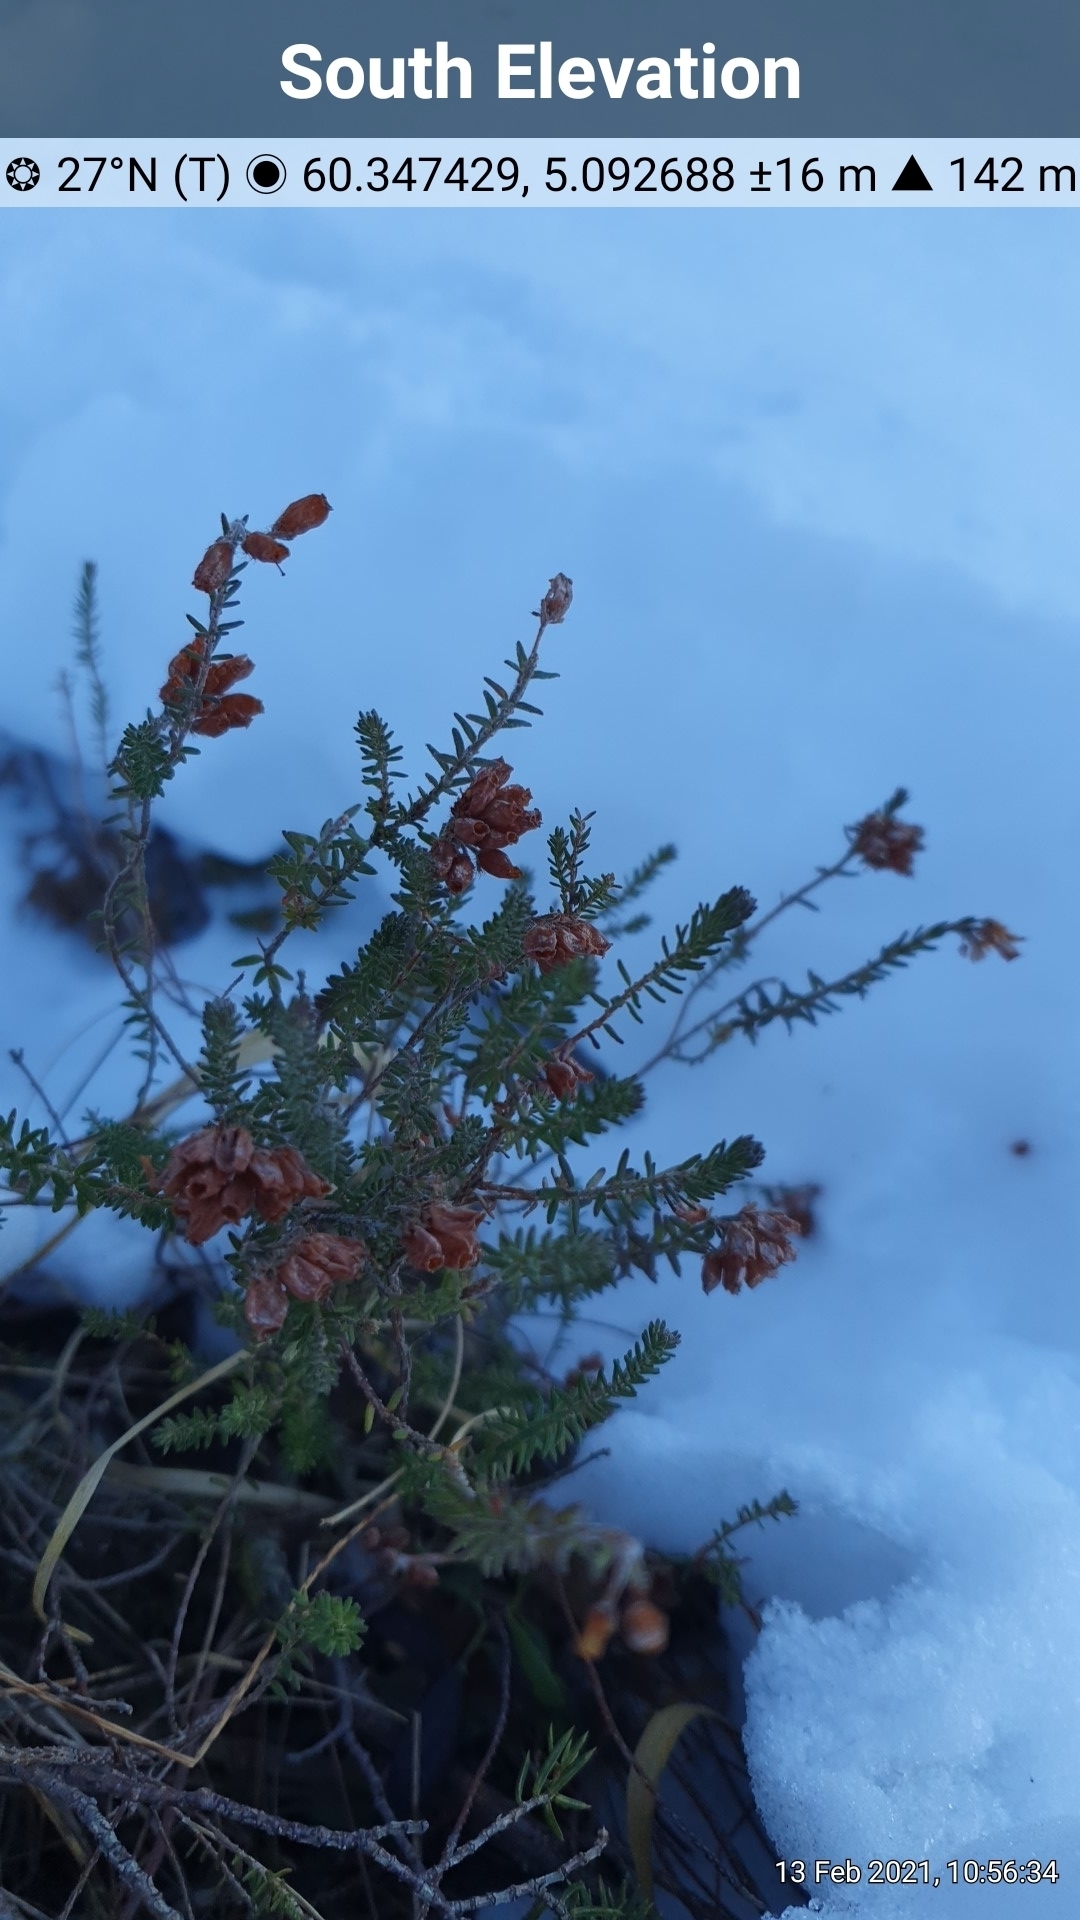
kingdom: Plantae
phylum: Tracheophyta
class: Magnoliopsida
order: Ericales
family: Ericaceae
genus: Erica
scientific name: Erica tetralix
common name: Cross-leaved heath
